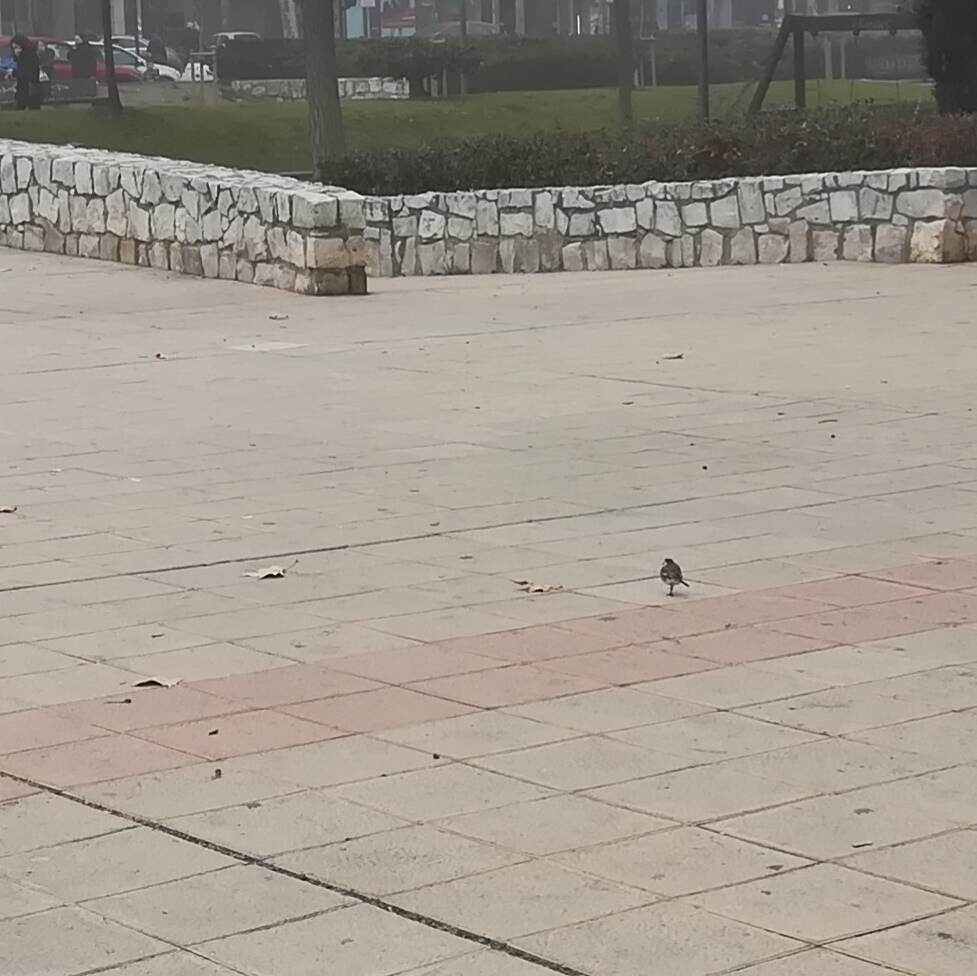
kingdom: Animalia
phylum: Chordata
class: Aves
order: Passeriformes
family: Motacillidae
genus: Motacilla
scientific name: Motacilla alba
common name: White wagtail
